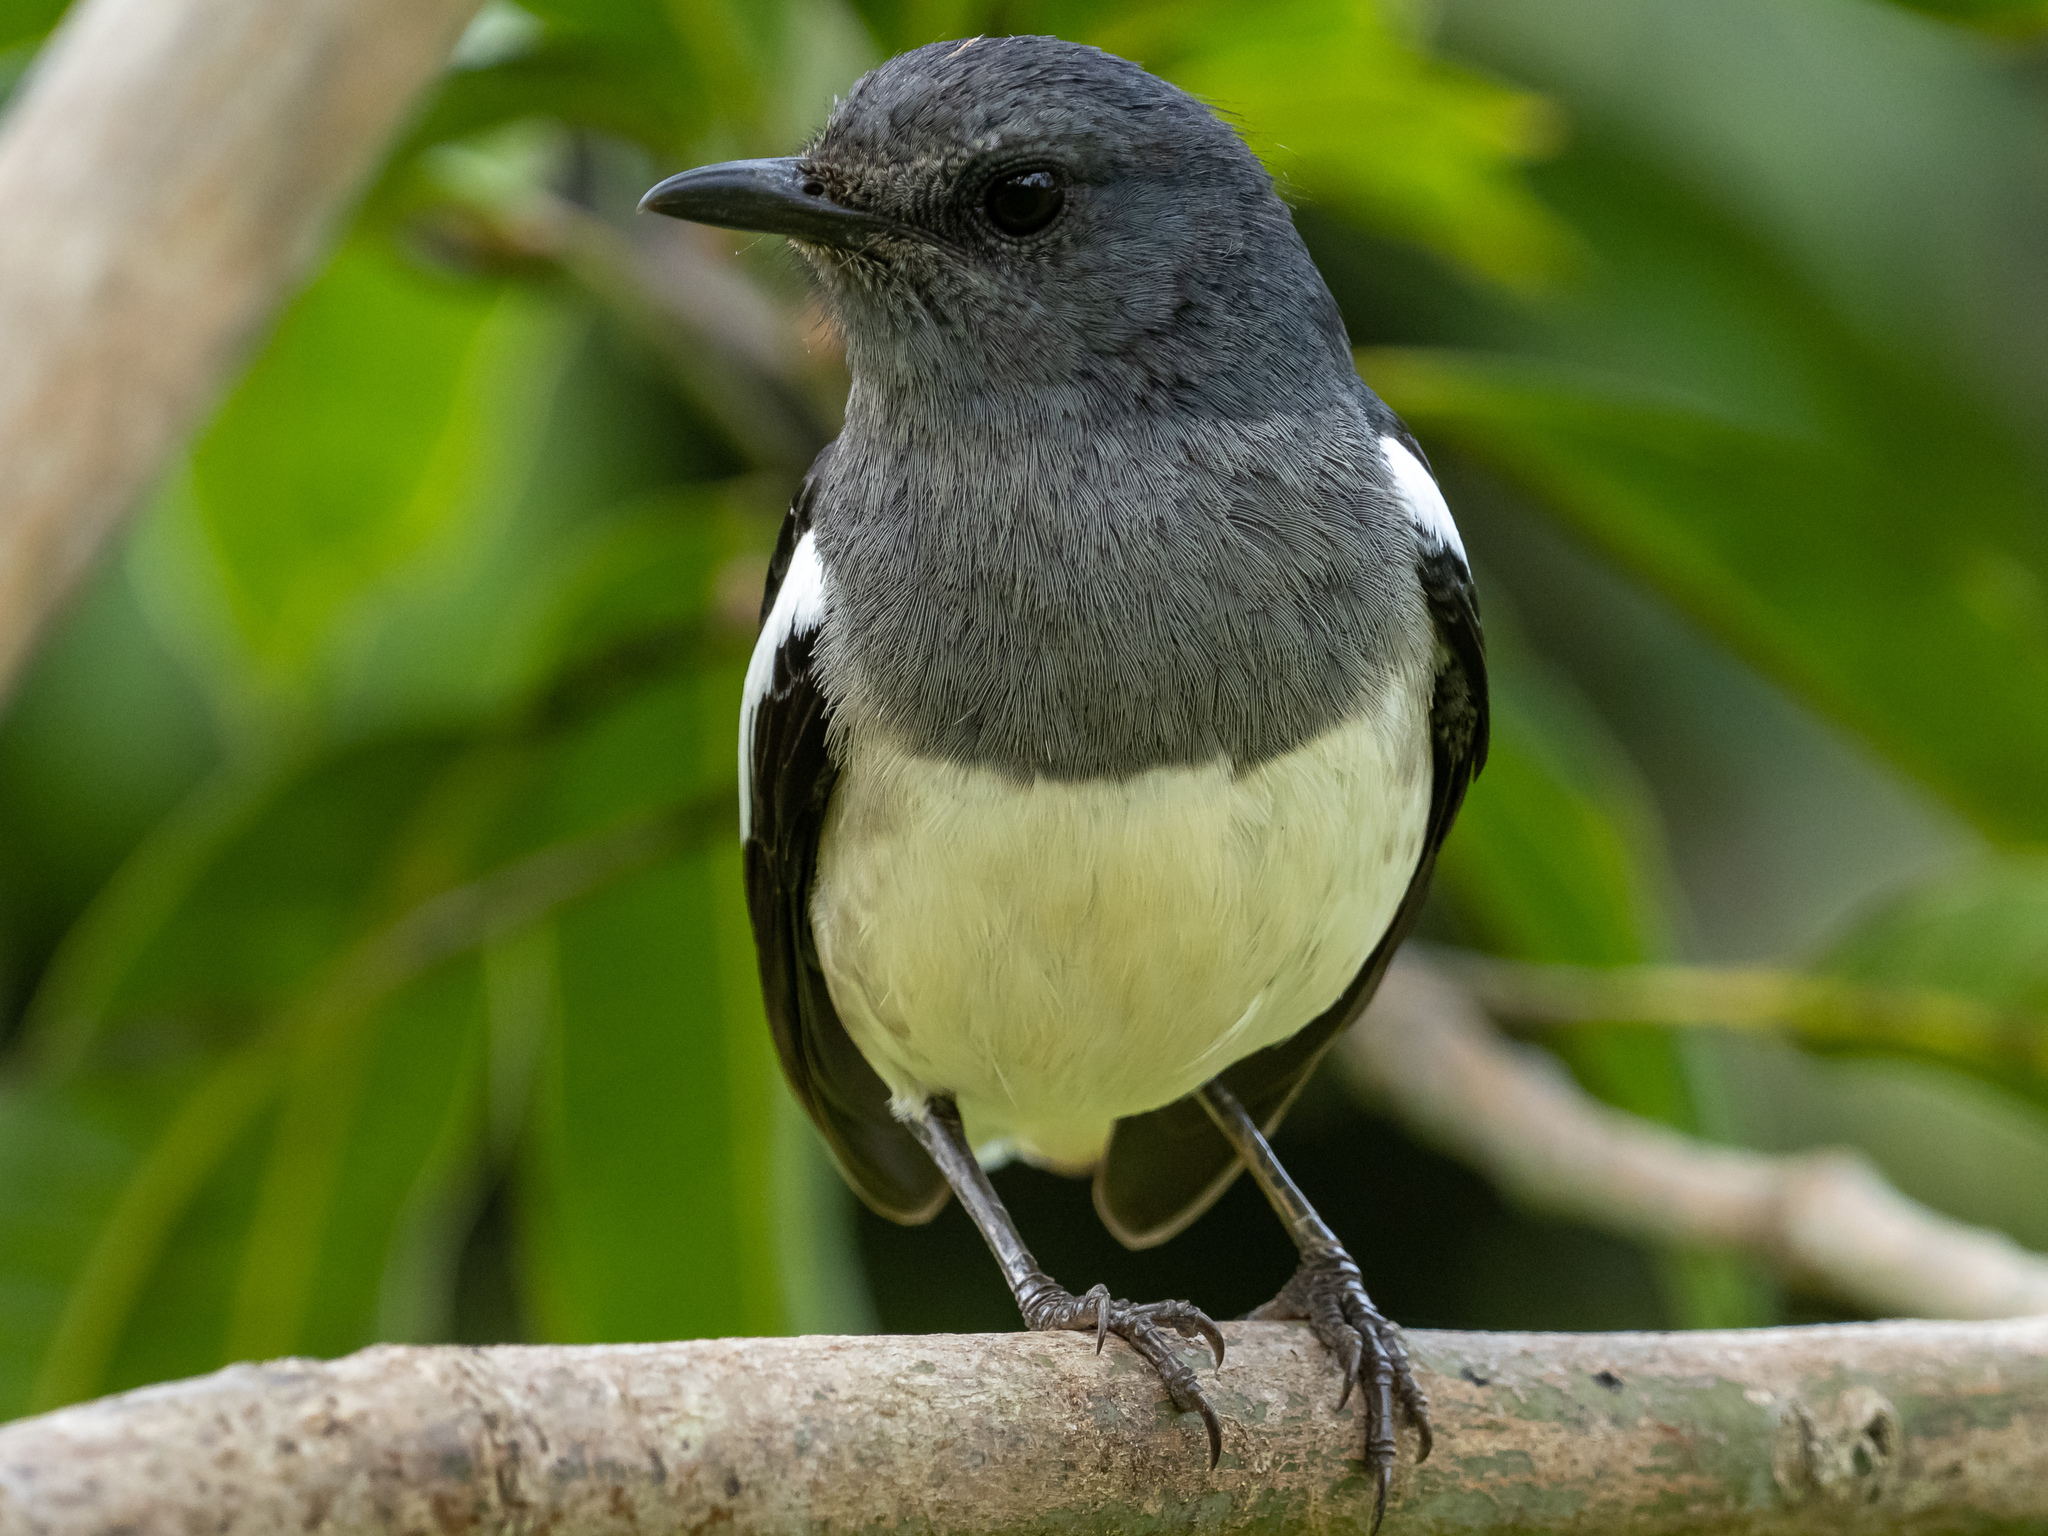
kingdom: Animalia
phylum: Chordata
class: Aves
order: Passeriformes
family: Muscicapidae
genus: Copsychus
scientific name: Copsychus saularis
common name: Oriental magpie-robin
